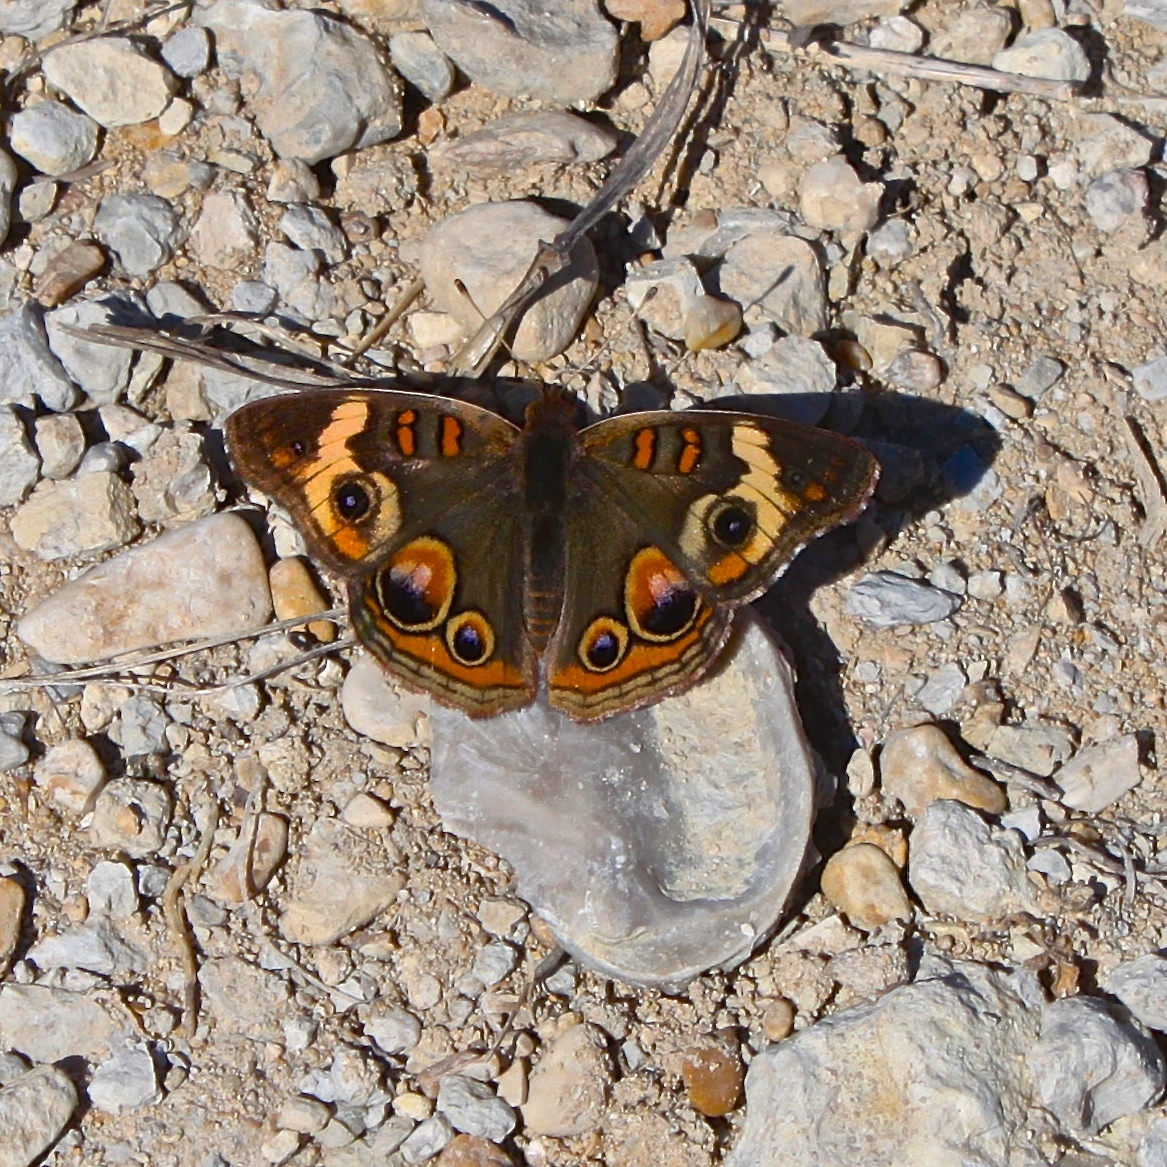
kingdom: Animalia
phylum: Arthropoda
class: Insecta
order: Lepidoptera
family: Nymphalidae
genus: Junonia
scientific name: Junonia coenia
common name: Common buckeye
